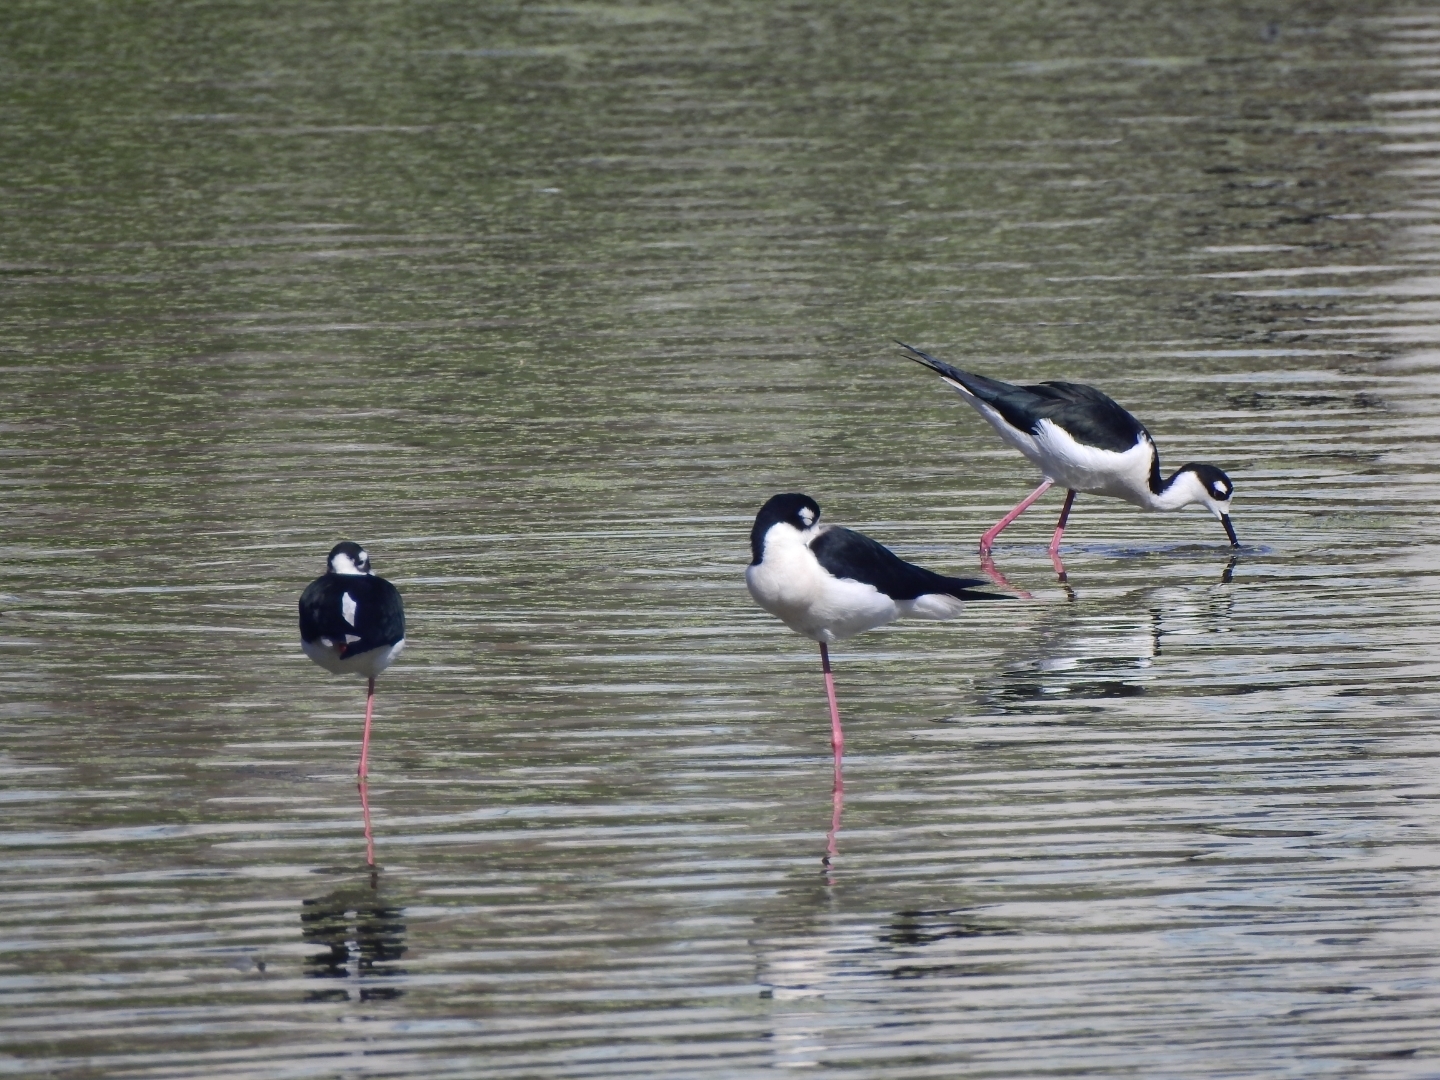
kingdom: Animalia
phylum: Chordata
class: Aves
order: Charadriiformes
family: Recurvirostridae
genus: Himantopus
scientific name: Himantopus mexicanus
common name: Black-necked stilt
